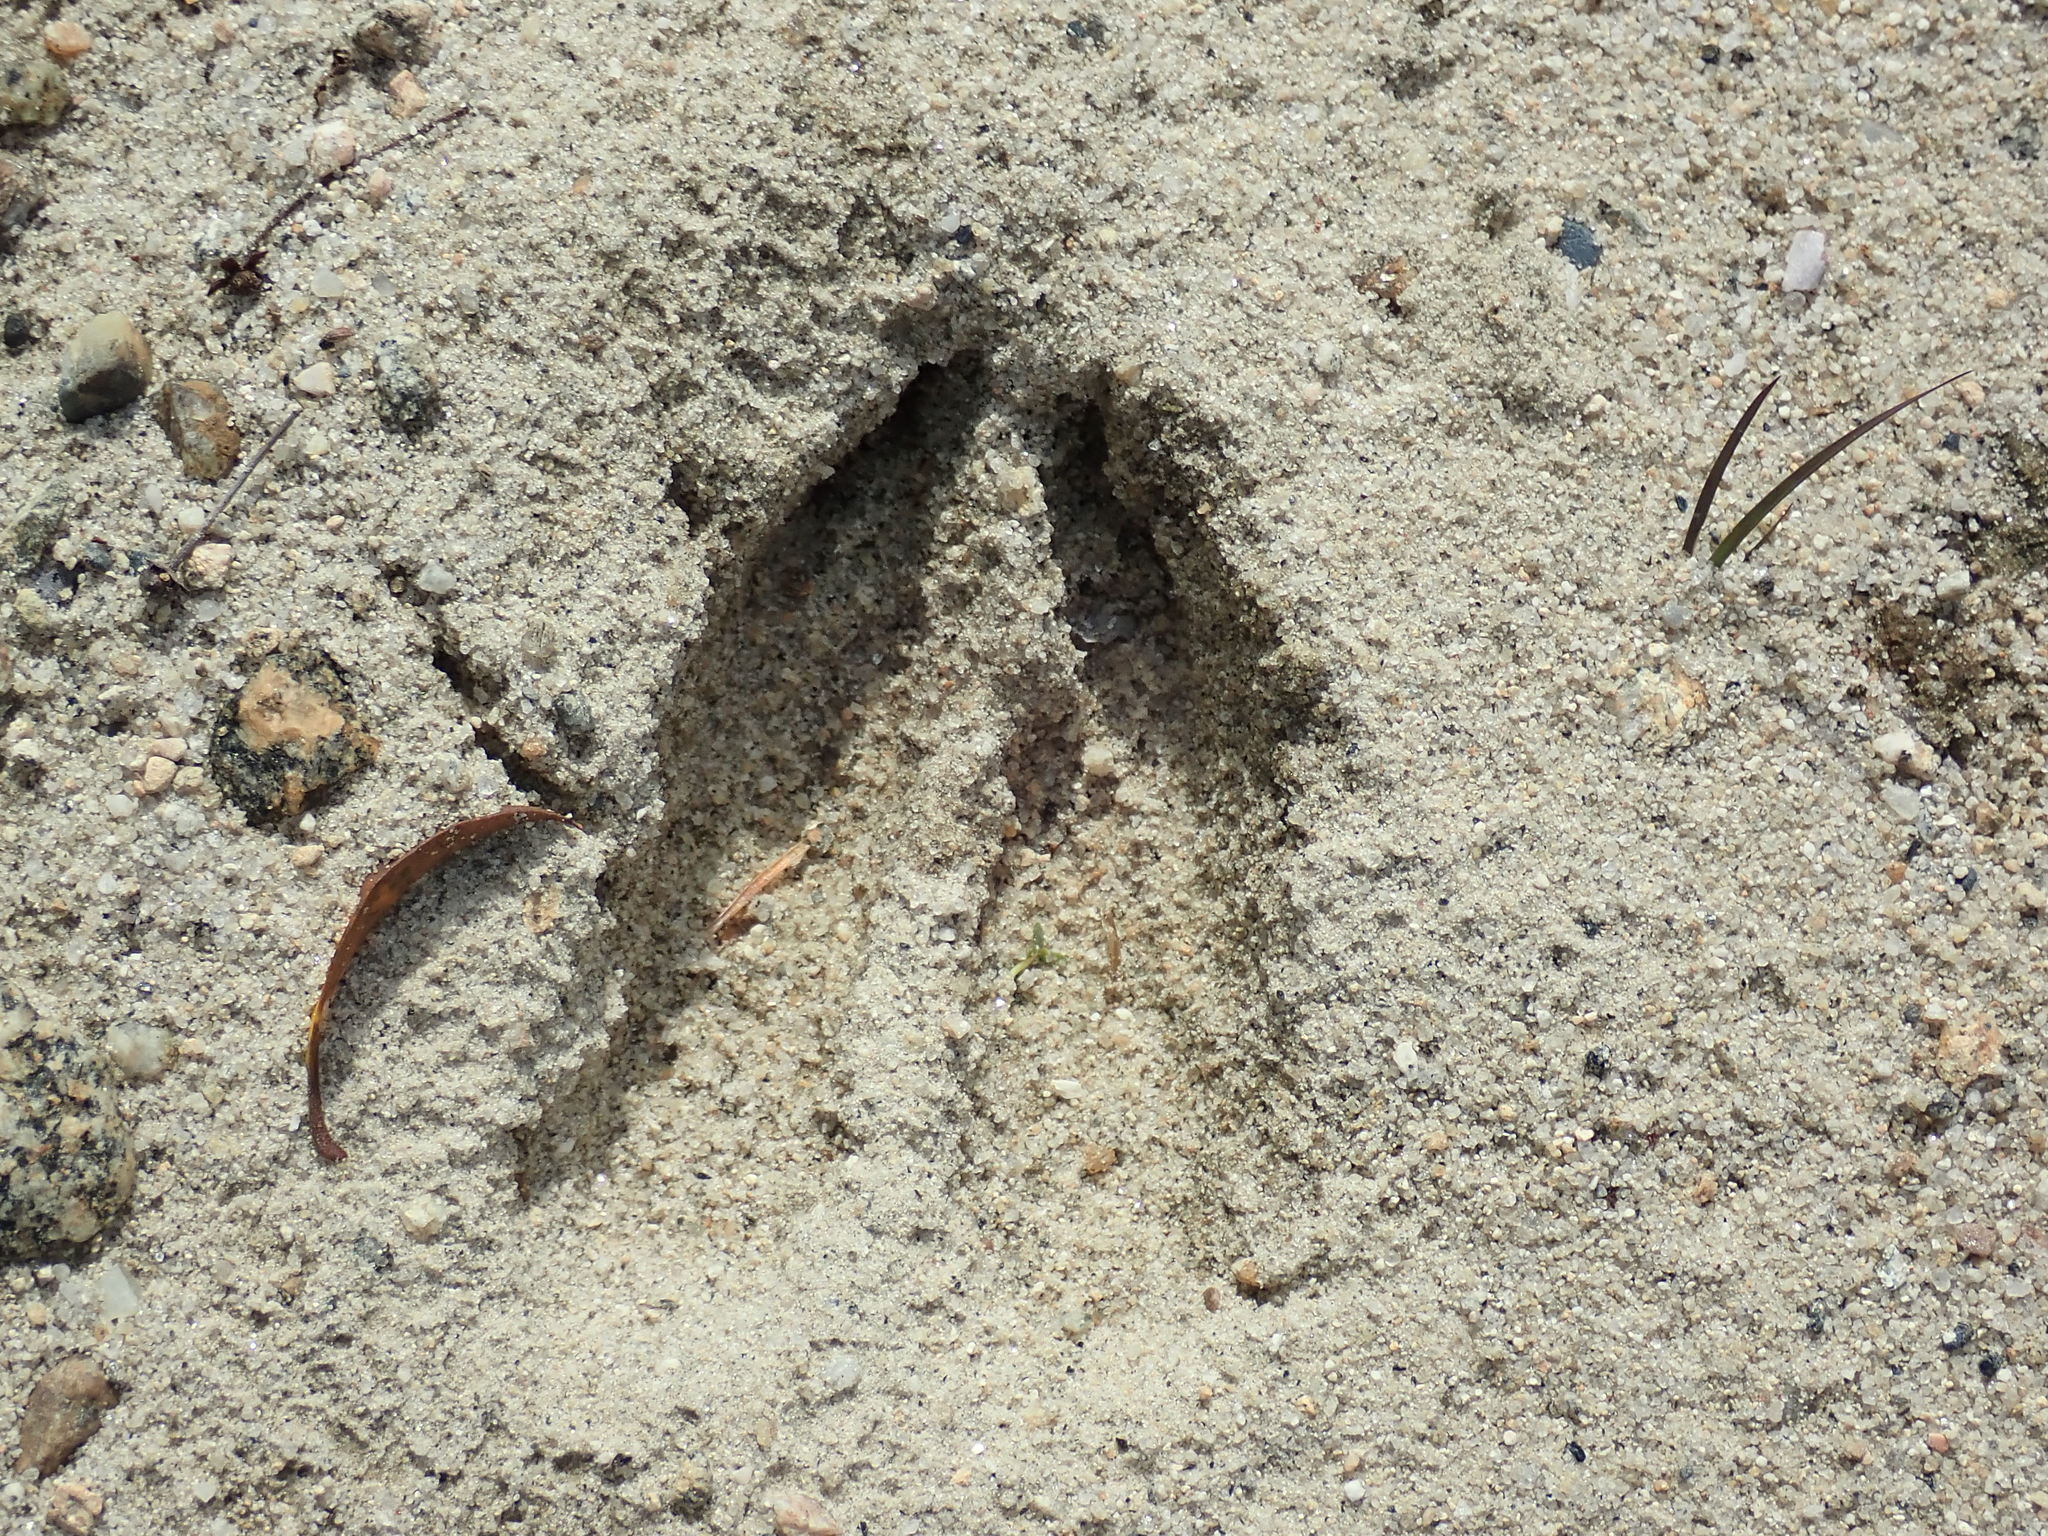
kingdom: Animalia
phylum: Chordata
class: Mammalia
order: Artiodactyla
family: Cervidae
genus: Odocoileus
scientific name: Odocoileus virginianus
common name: White-tailed deer
